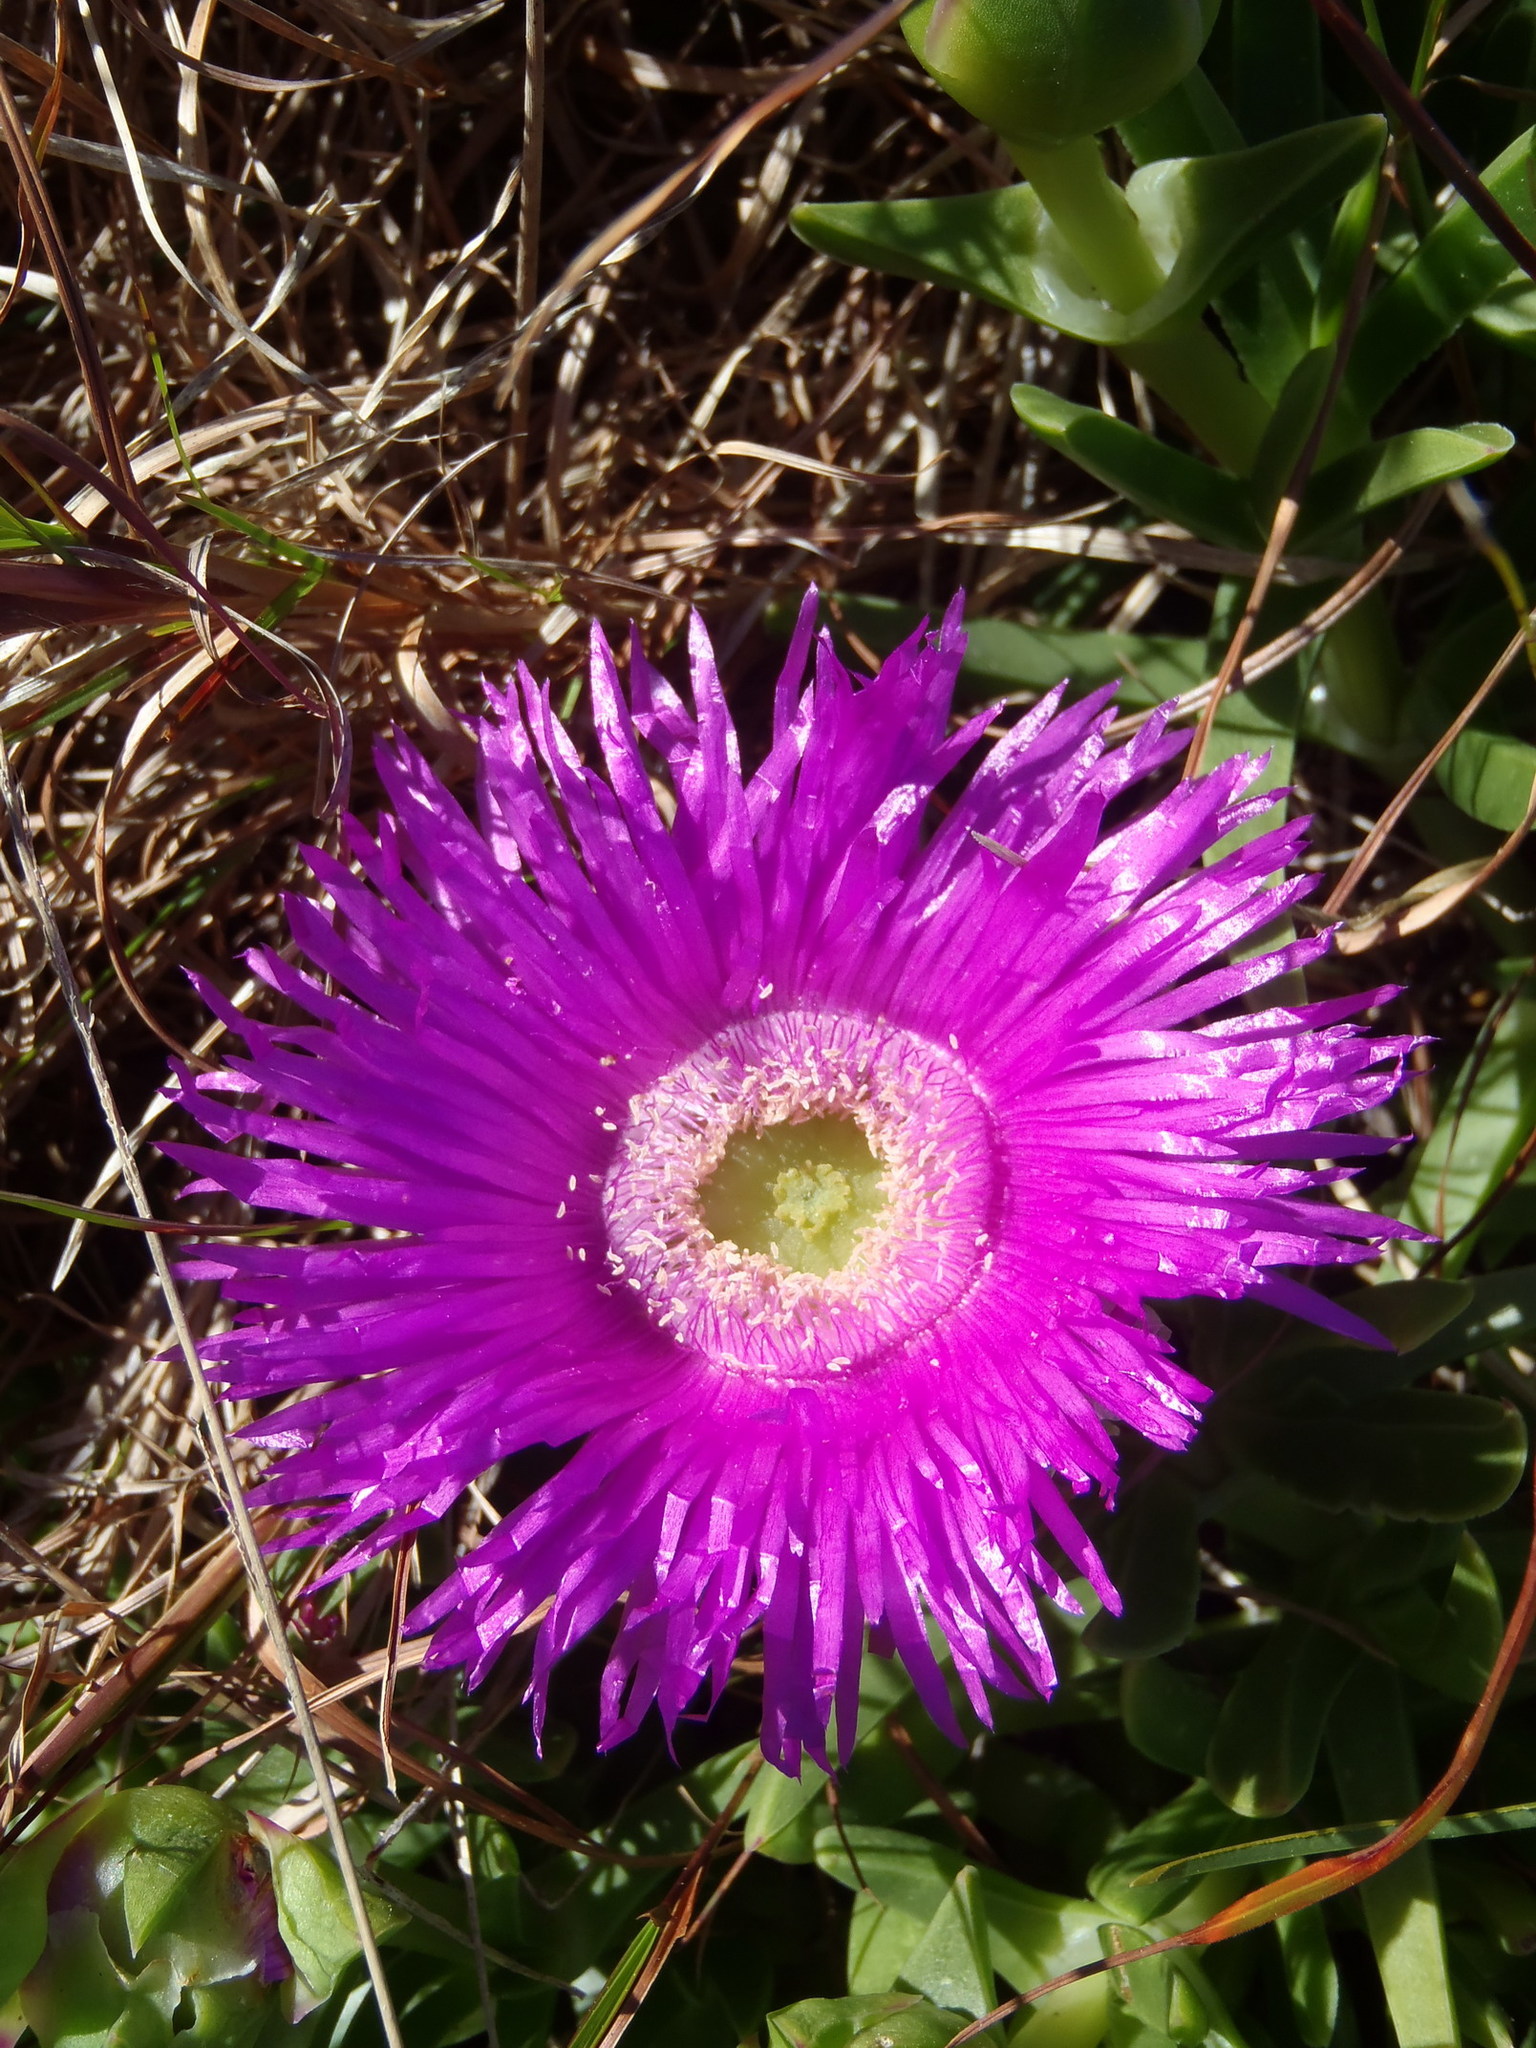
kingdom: Plantae
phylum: Tracheophyta
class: Magnoliopsida
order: Caryophyllales
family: Aizoaceae
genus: Carpobrotus
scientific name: Carpobrotus deliciosus
